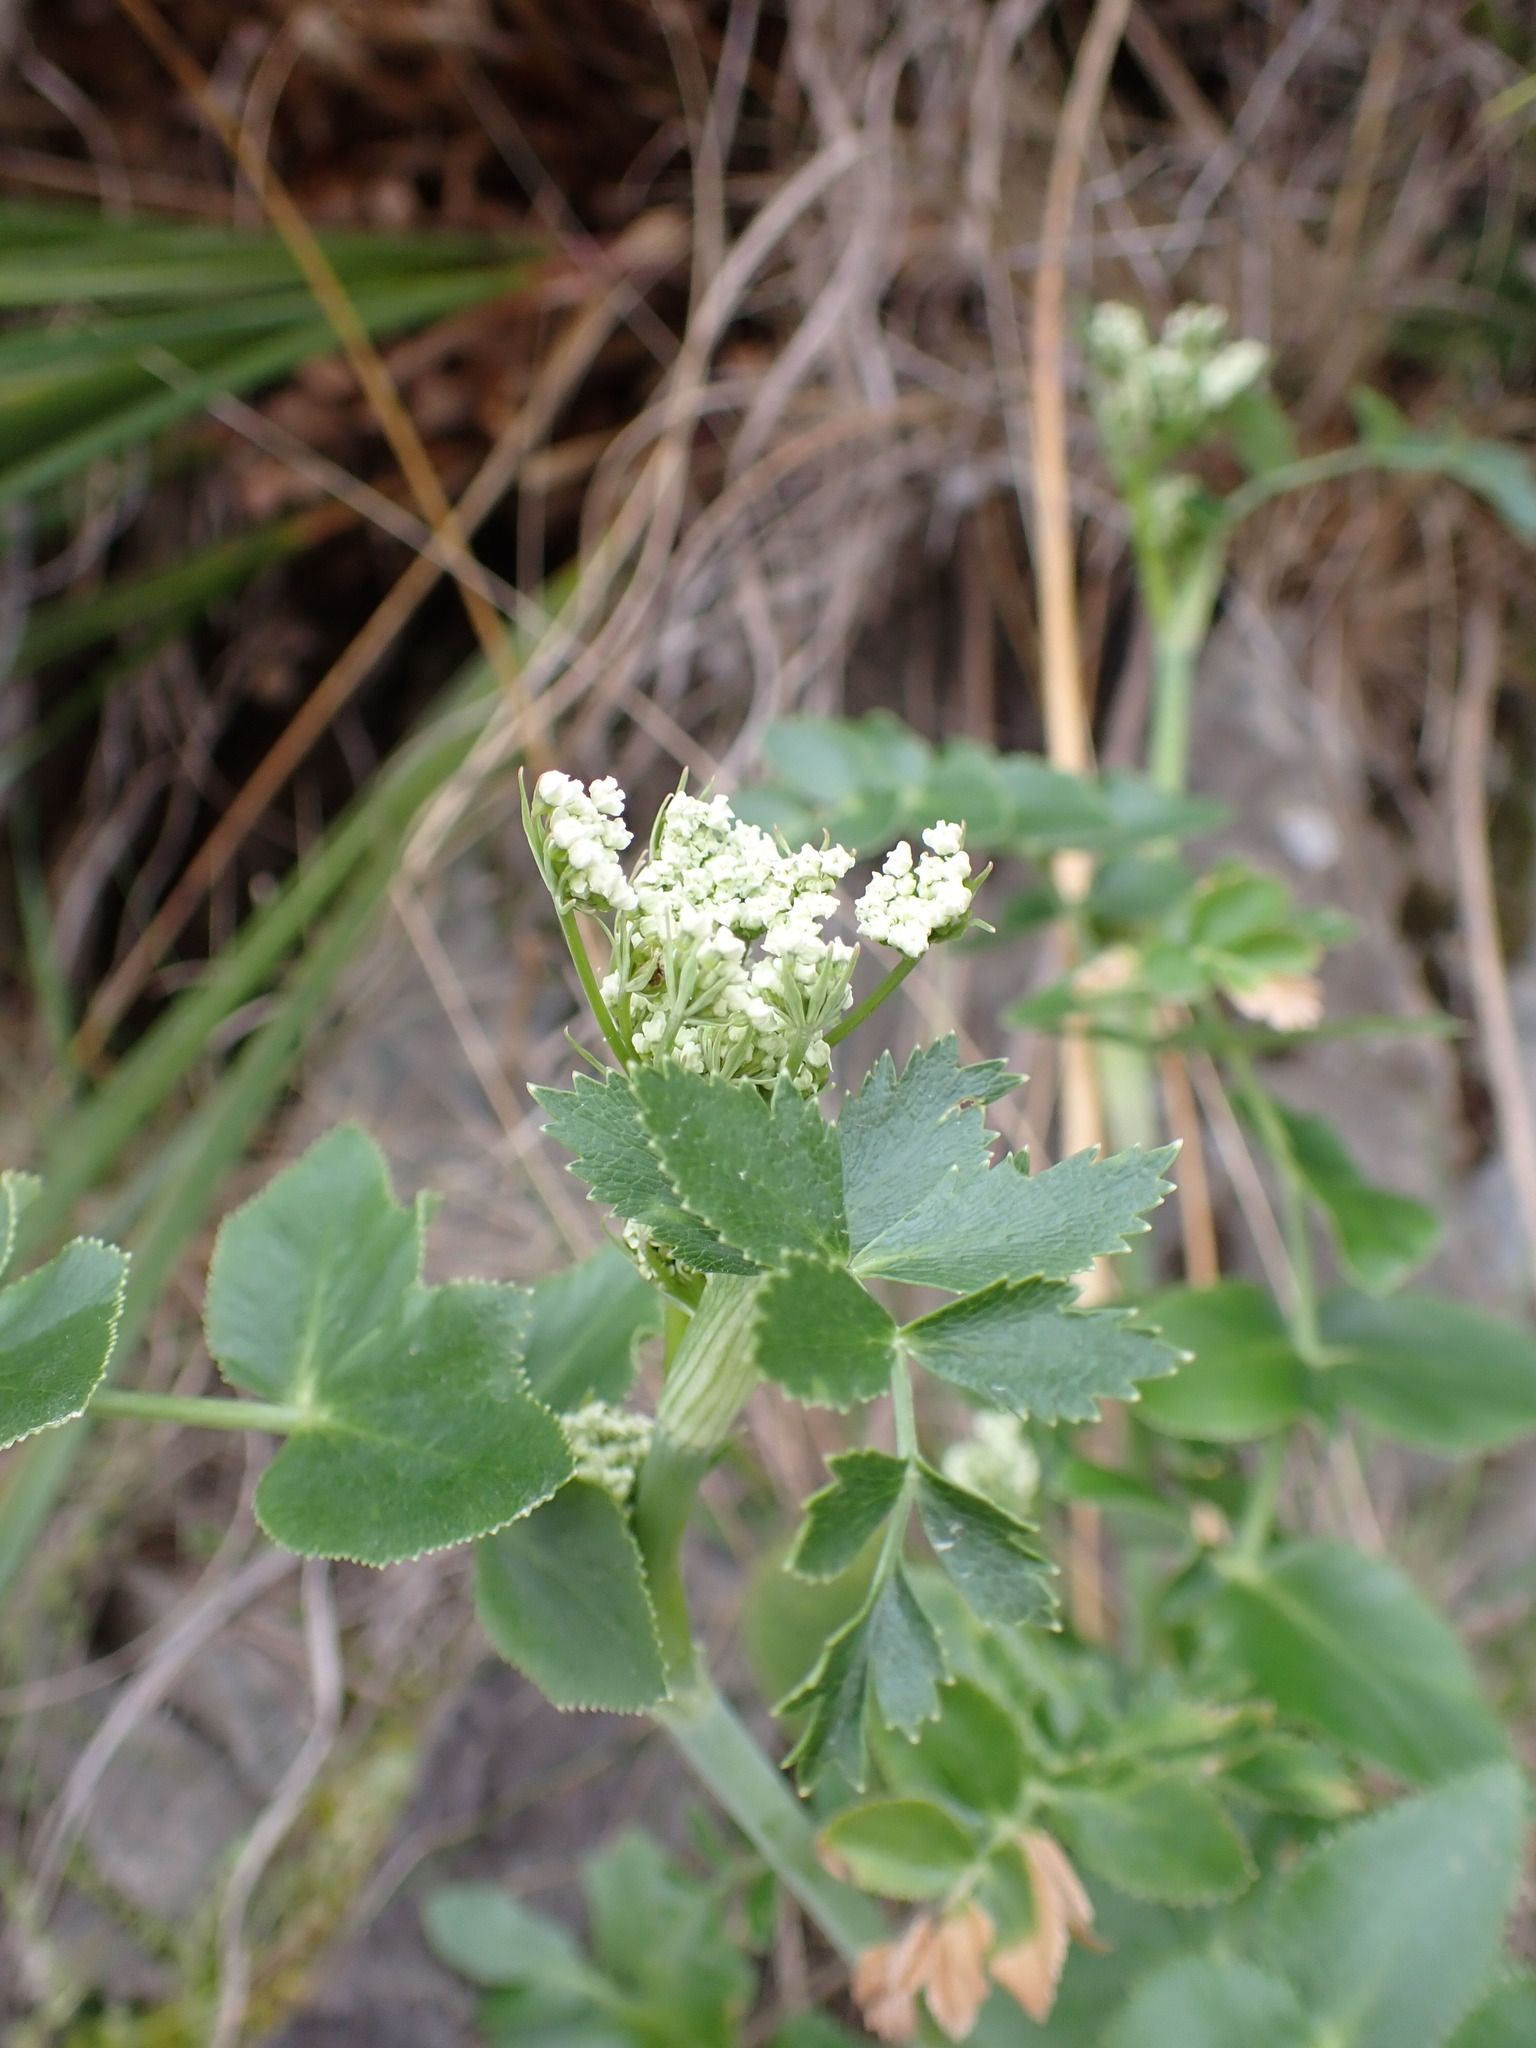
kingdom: Plantae
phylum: Tracheophyta
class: Magnoliopsida
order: Apiales
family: Apiaceae
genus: Gingidia
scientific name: Gingidia montana
